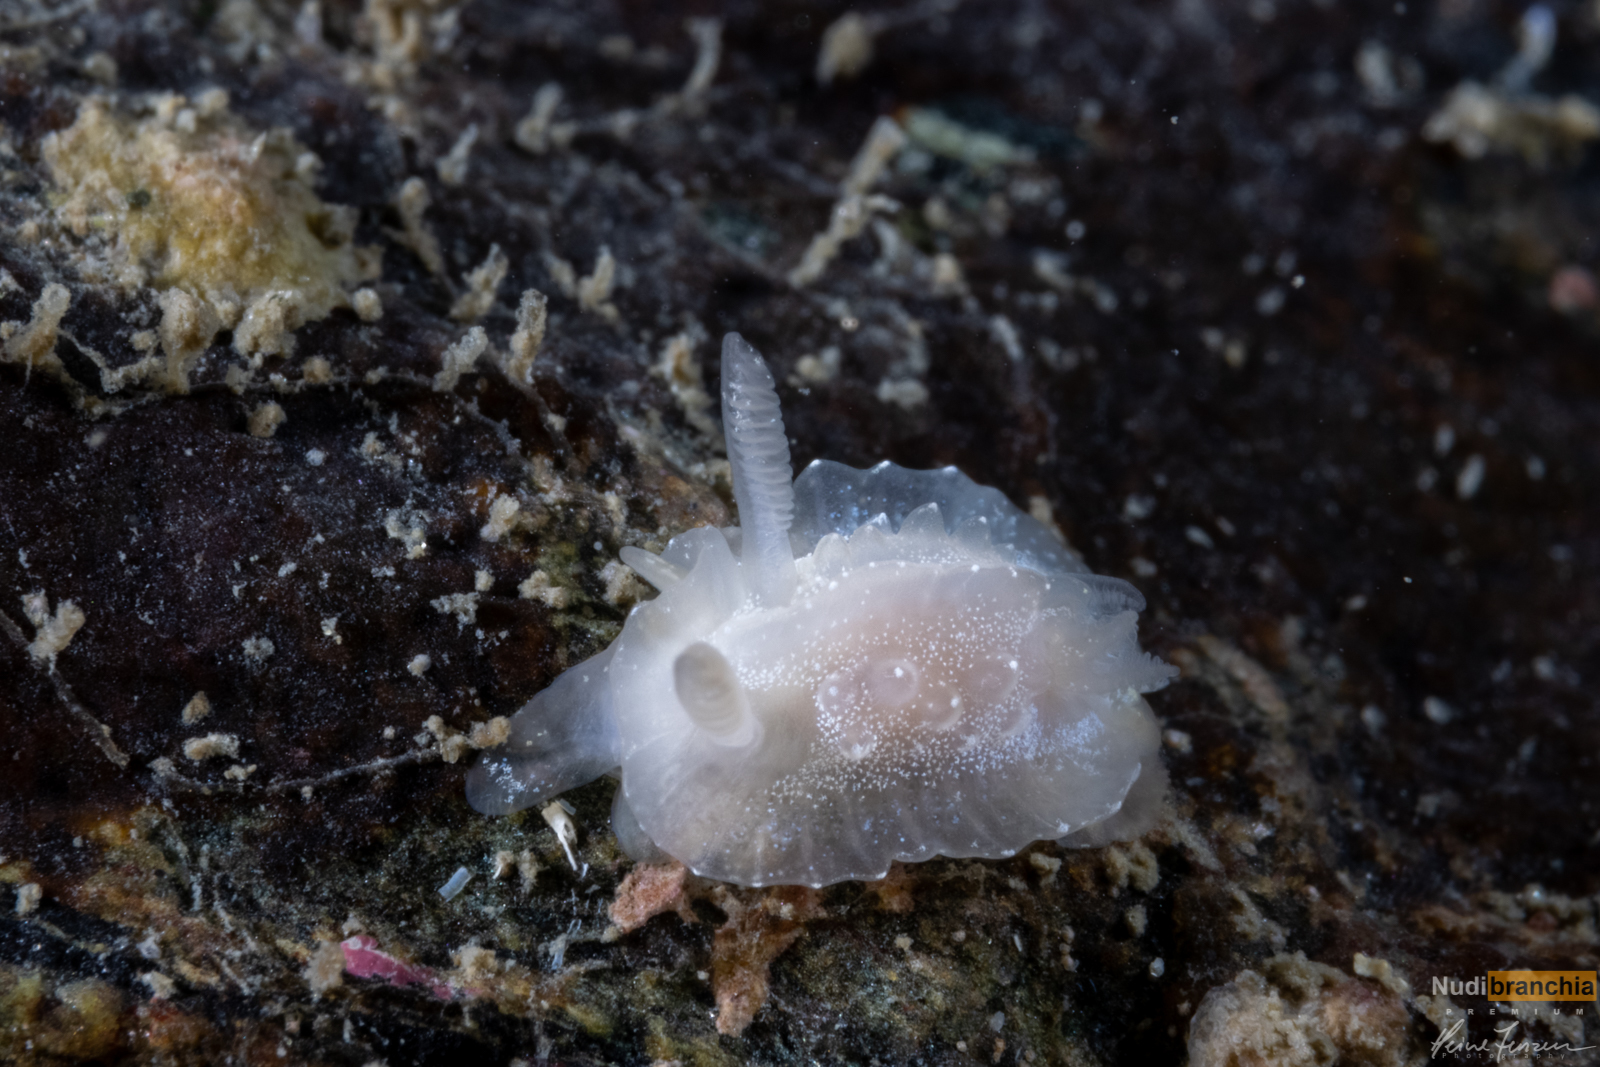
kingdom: Animalia
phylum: Mollusca
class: Gastropoda
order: Nudibranchia
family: Goniodorididae
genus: Okenia
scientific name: Okenia
